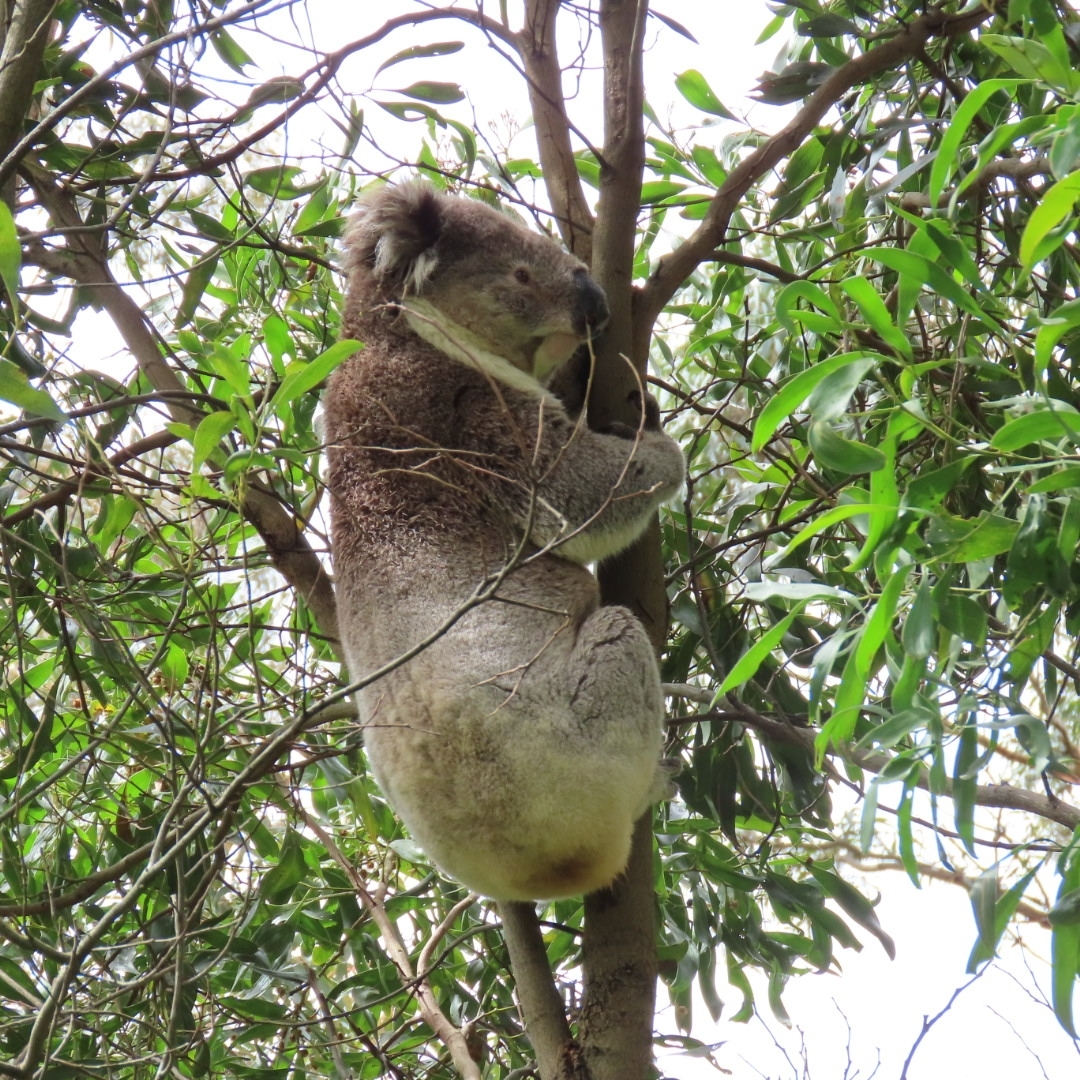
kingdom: Animalia
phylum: Chordata
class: Mammalia
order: Diprotodontia
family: Phascolarctidae
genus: Phascolarctos
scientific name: Phascolarctos cinereus
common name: Koala
